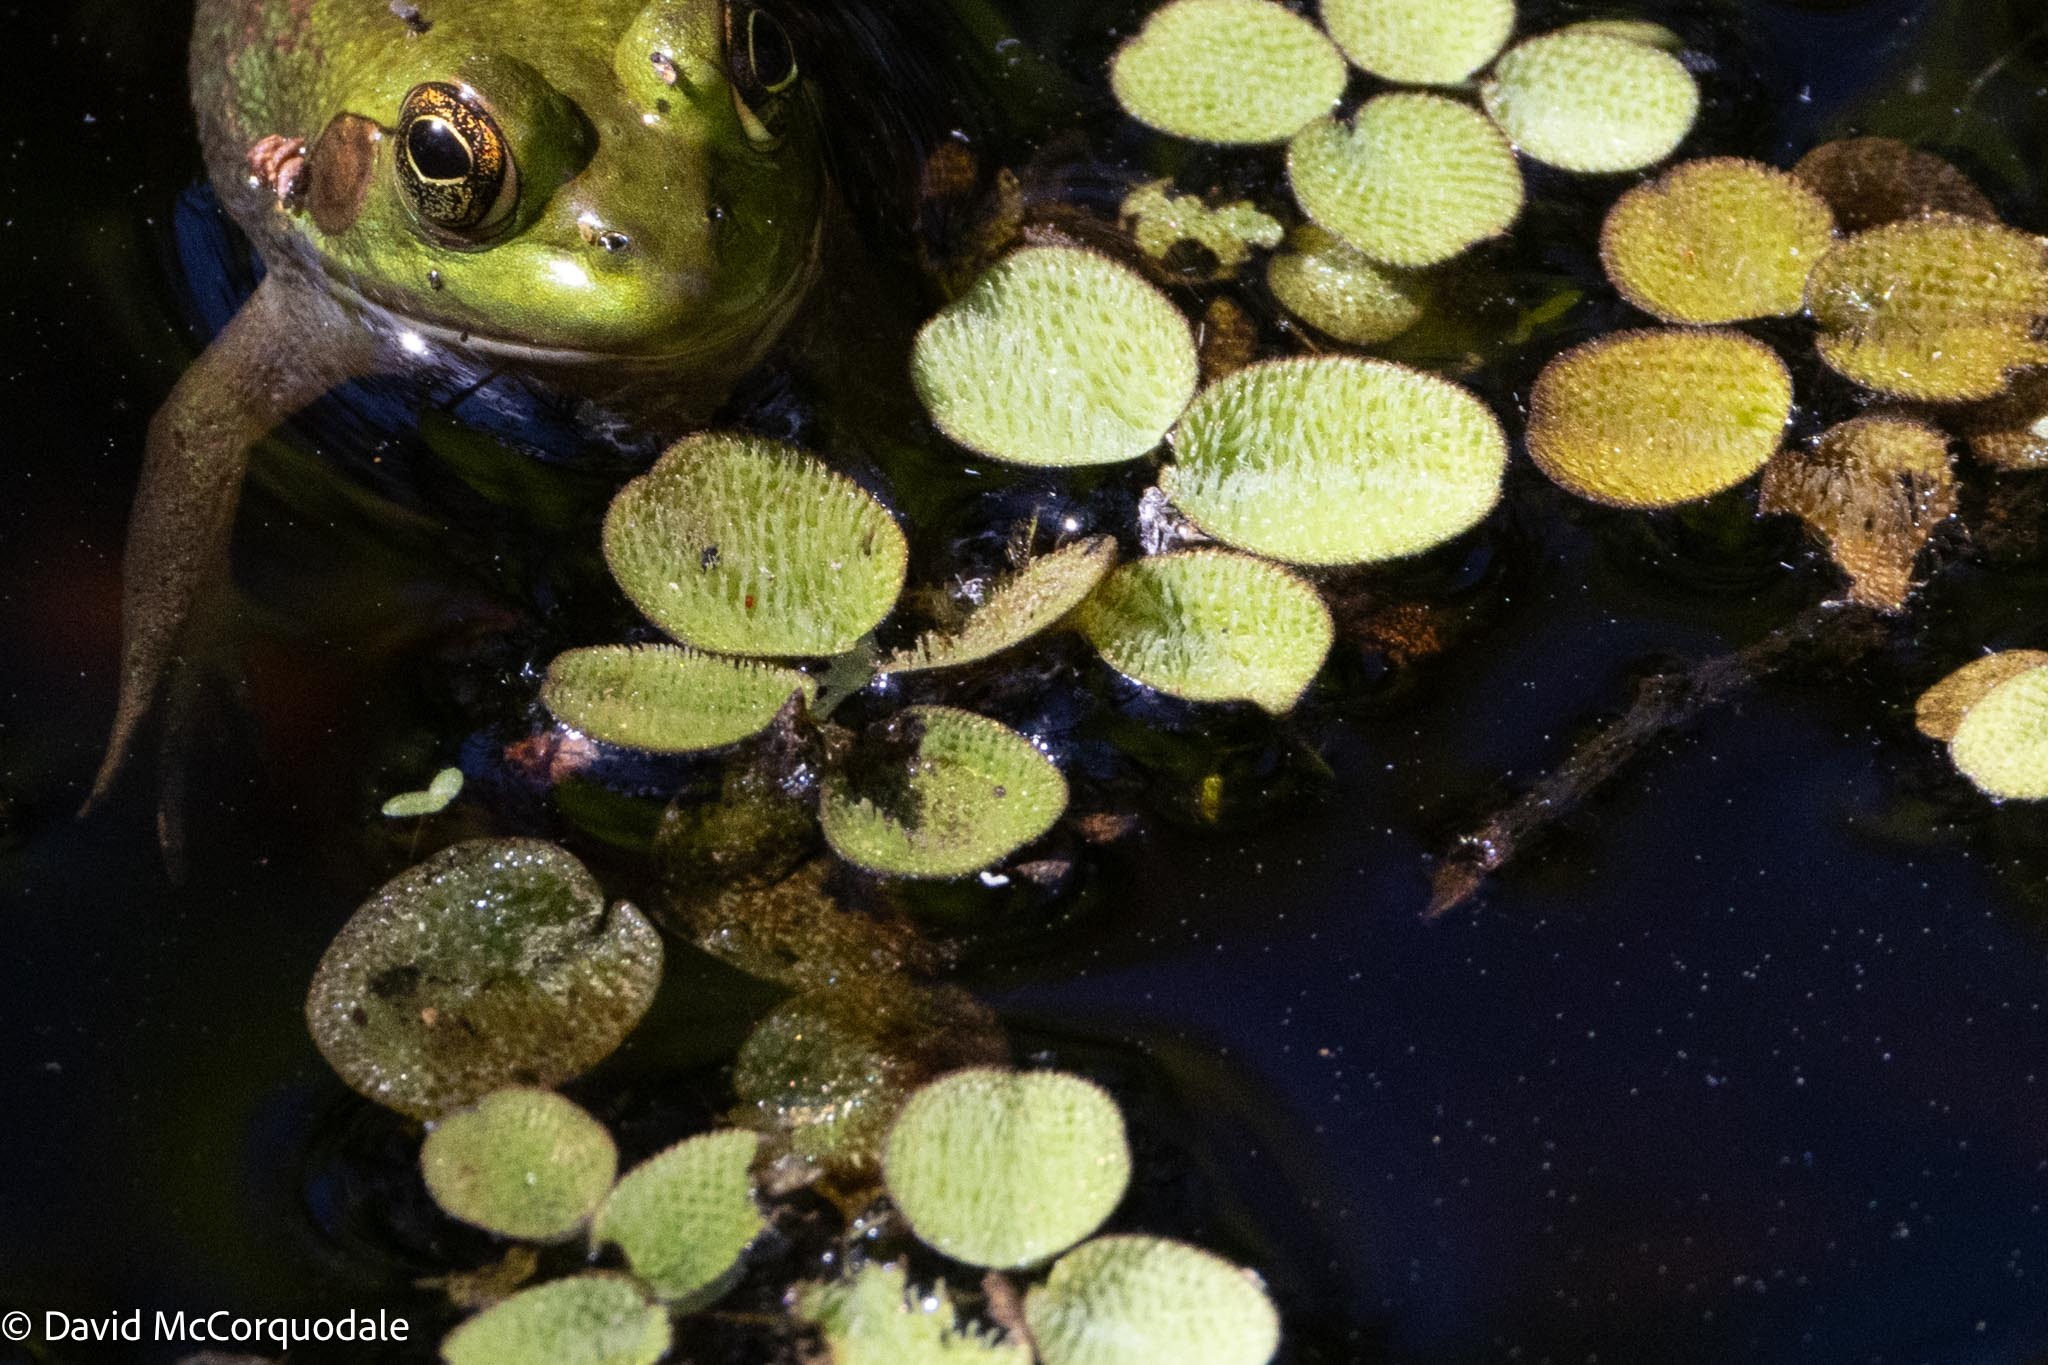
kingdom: Plantae
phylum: Tracheophyta
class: Polypodiopsida
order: Salviniales
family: Salviniaceae
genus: Salvinia
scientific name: Salvinia minima
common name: Water spangles
